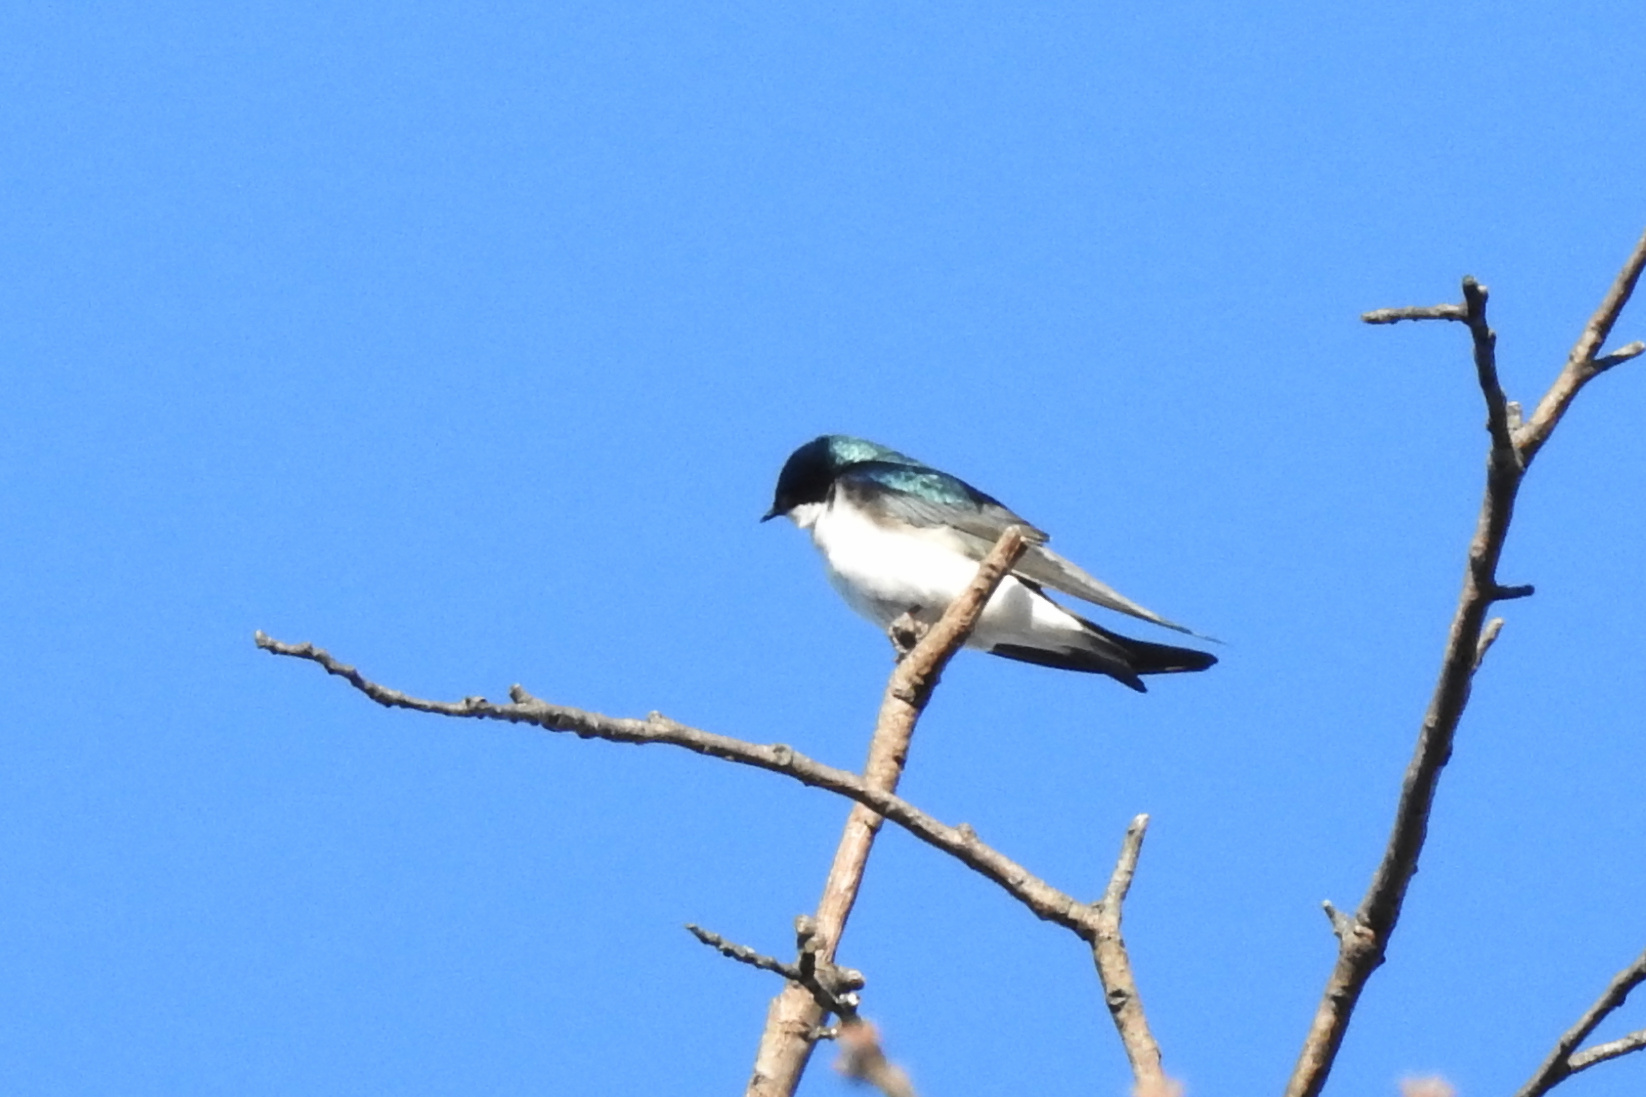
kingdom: Animalia
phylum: Chordata
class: Aves
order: Passeriformes
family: Hirundinidae
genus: Tachycineta
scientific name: Tachycineta bicolor
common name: Tree swallow
